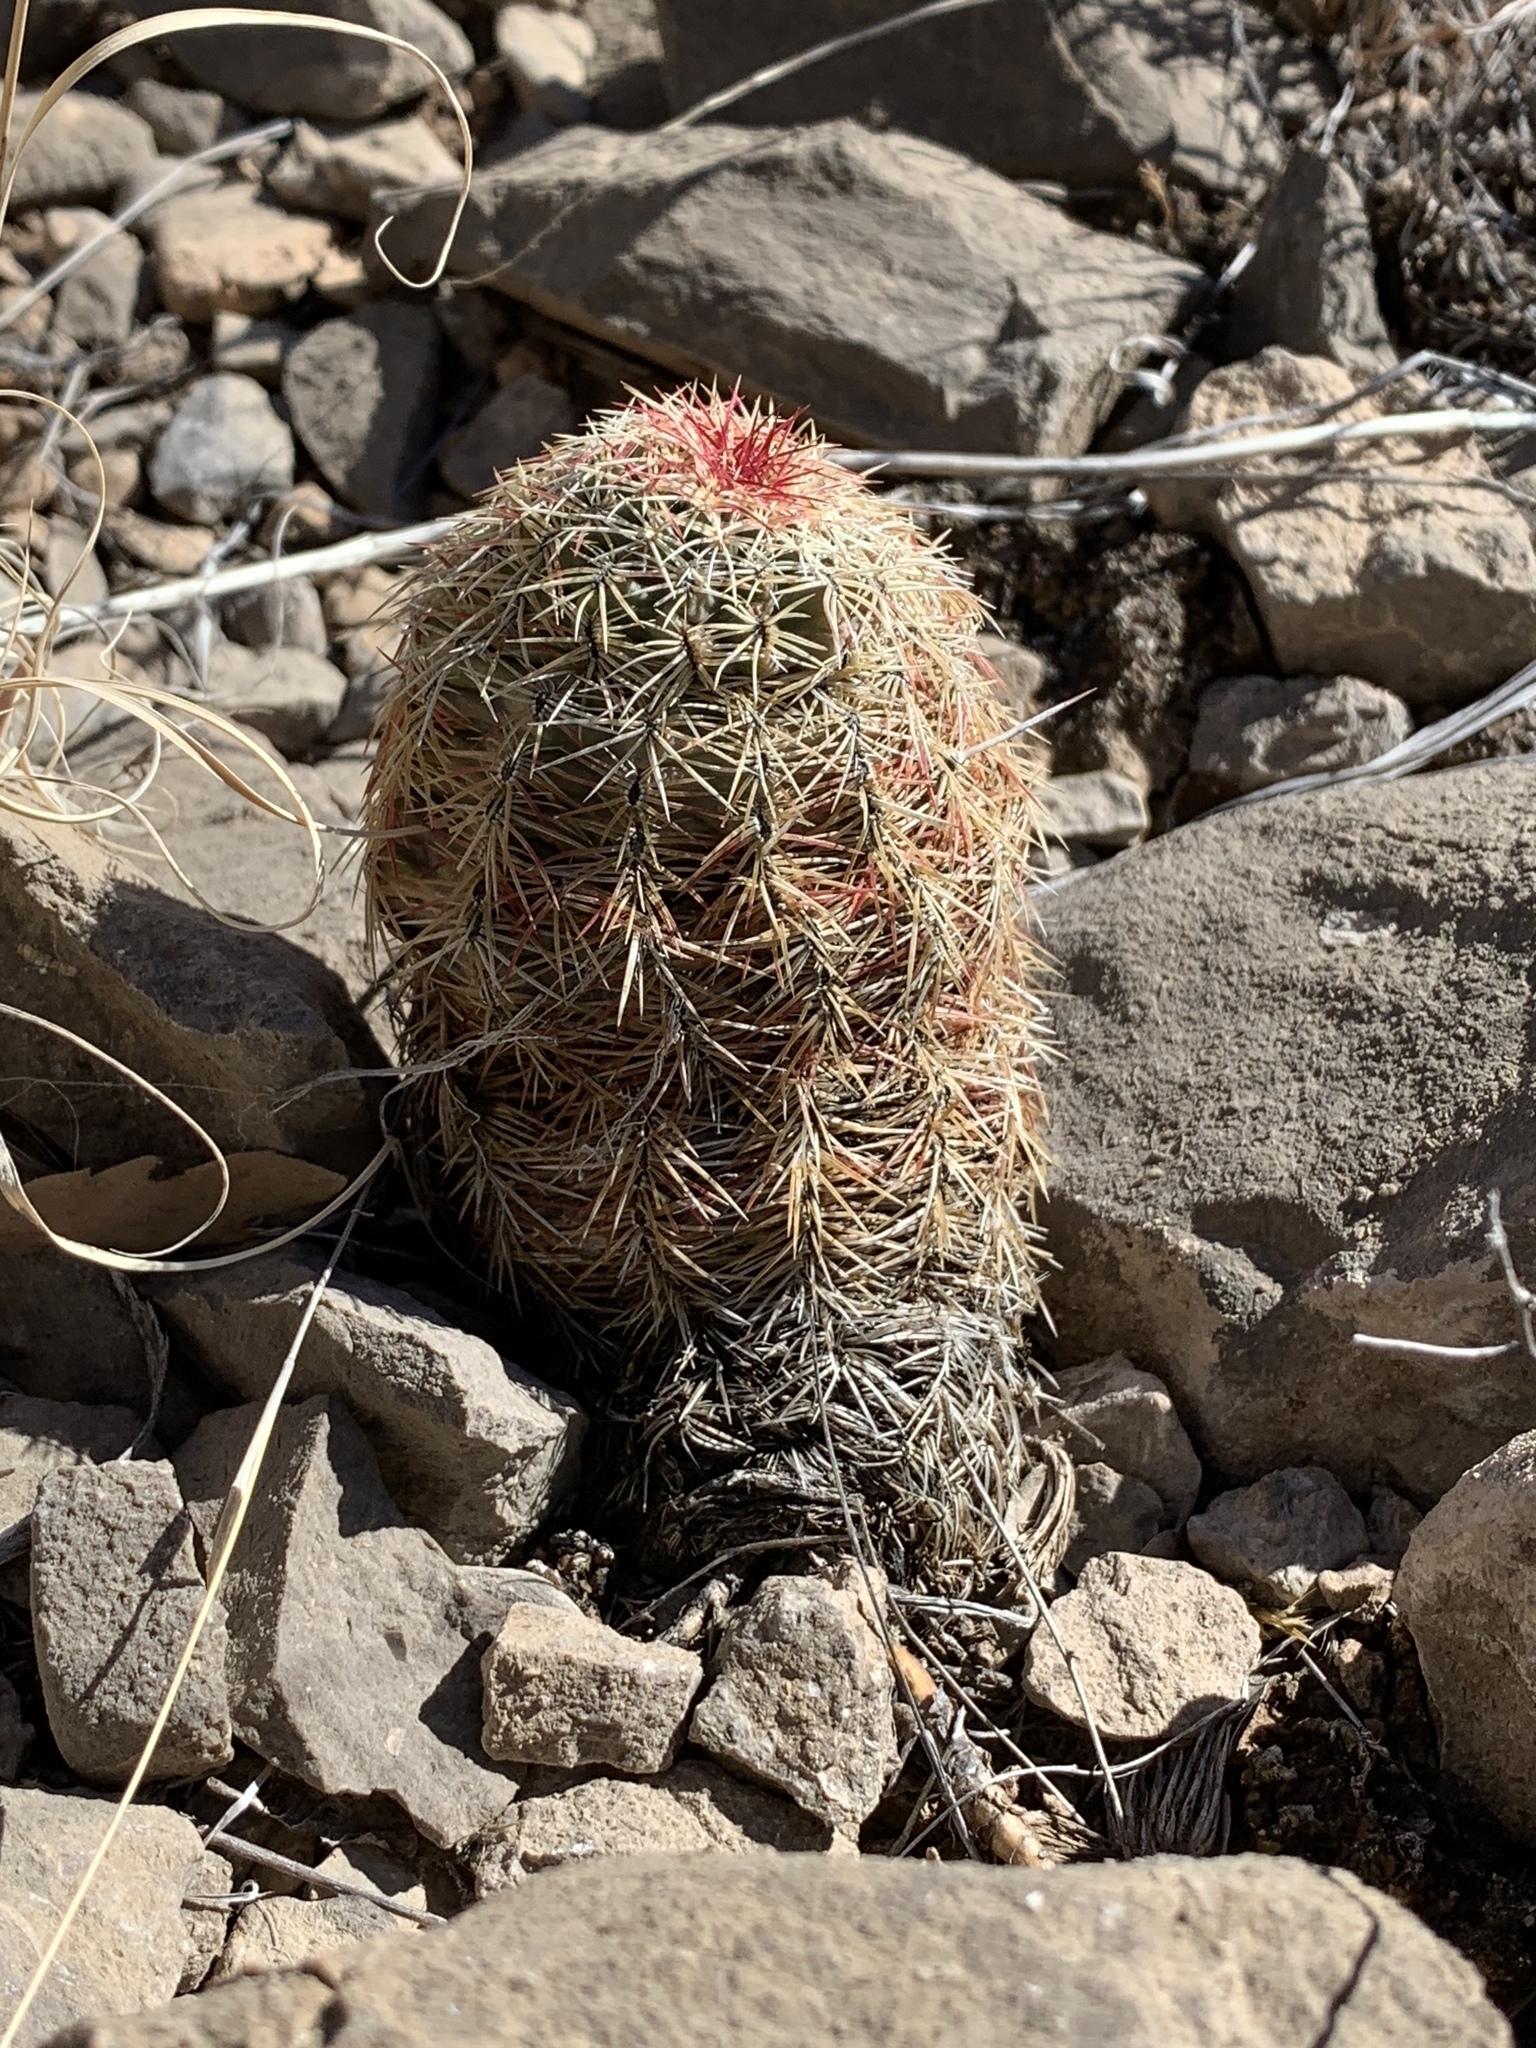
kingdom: Plantae
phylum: Tracheophyta
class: Magnoliopsida
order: Caryophyllales
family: Cactaceae
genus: Echinocereus
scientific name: Echinocereus viridiflorus
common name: Nylon hedgehog cactus
